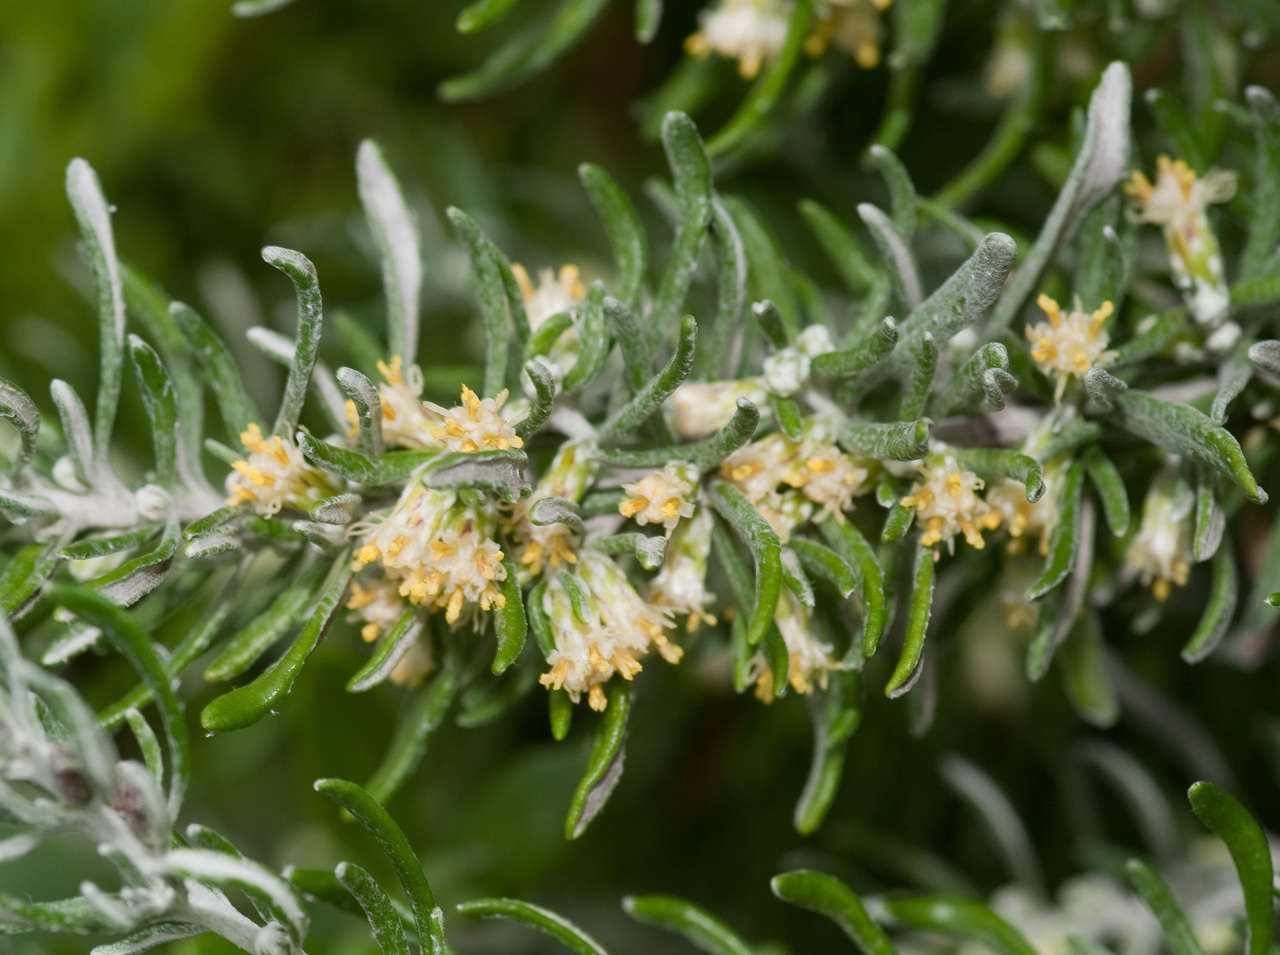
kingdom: Plantae
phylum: Tracheophyta
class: Magnoliopsida
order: Asterales
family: Asteraceae
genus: Olearia
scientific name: Olearia axillaris
